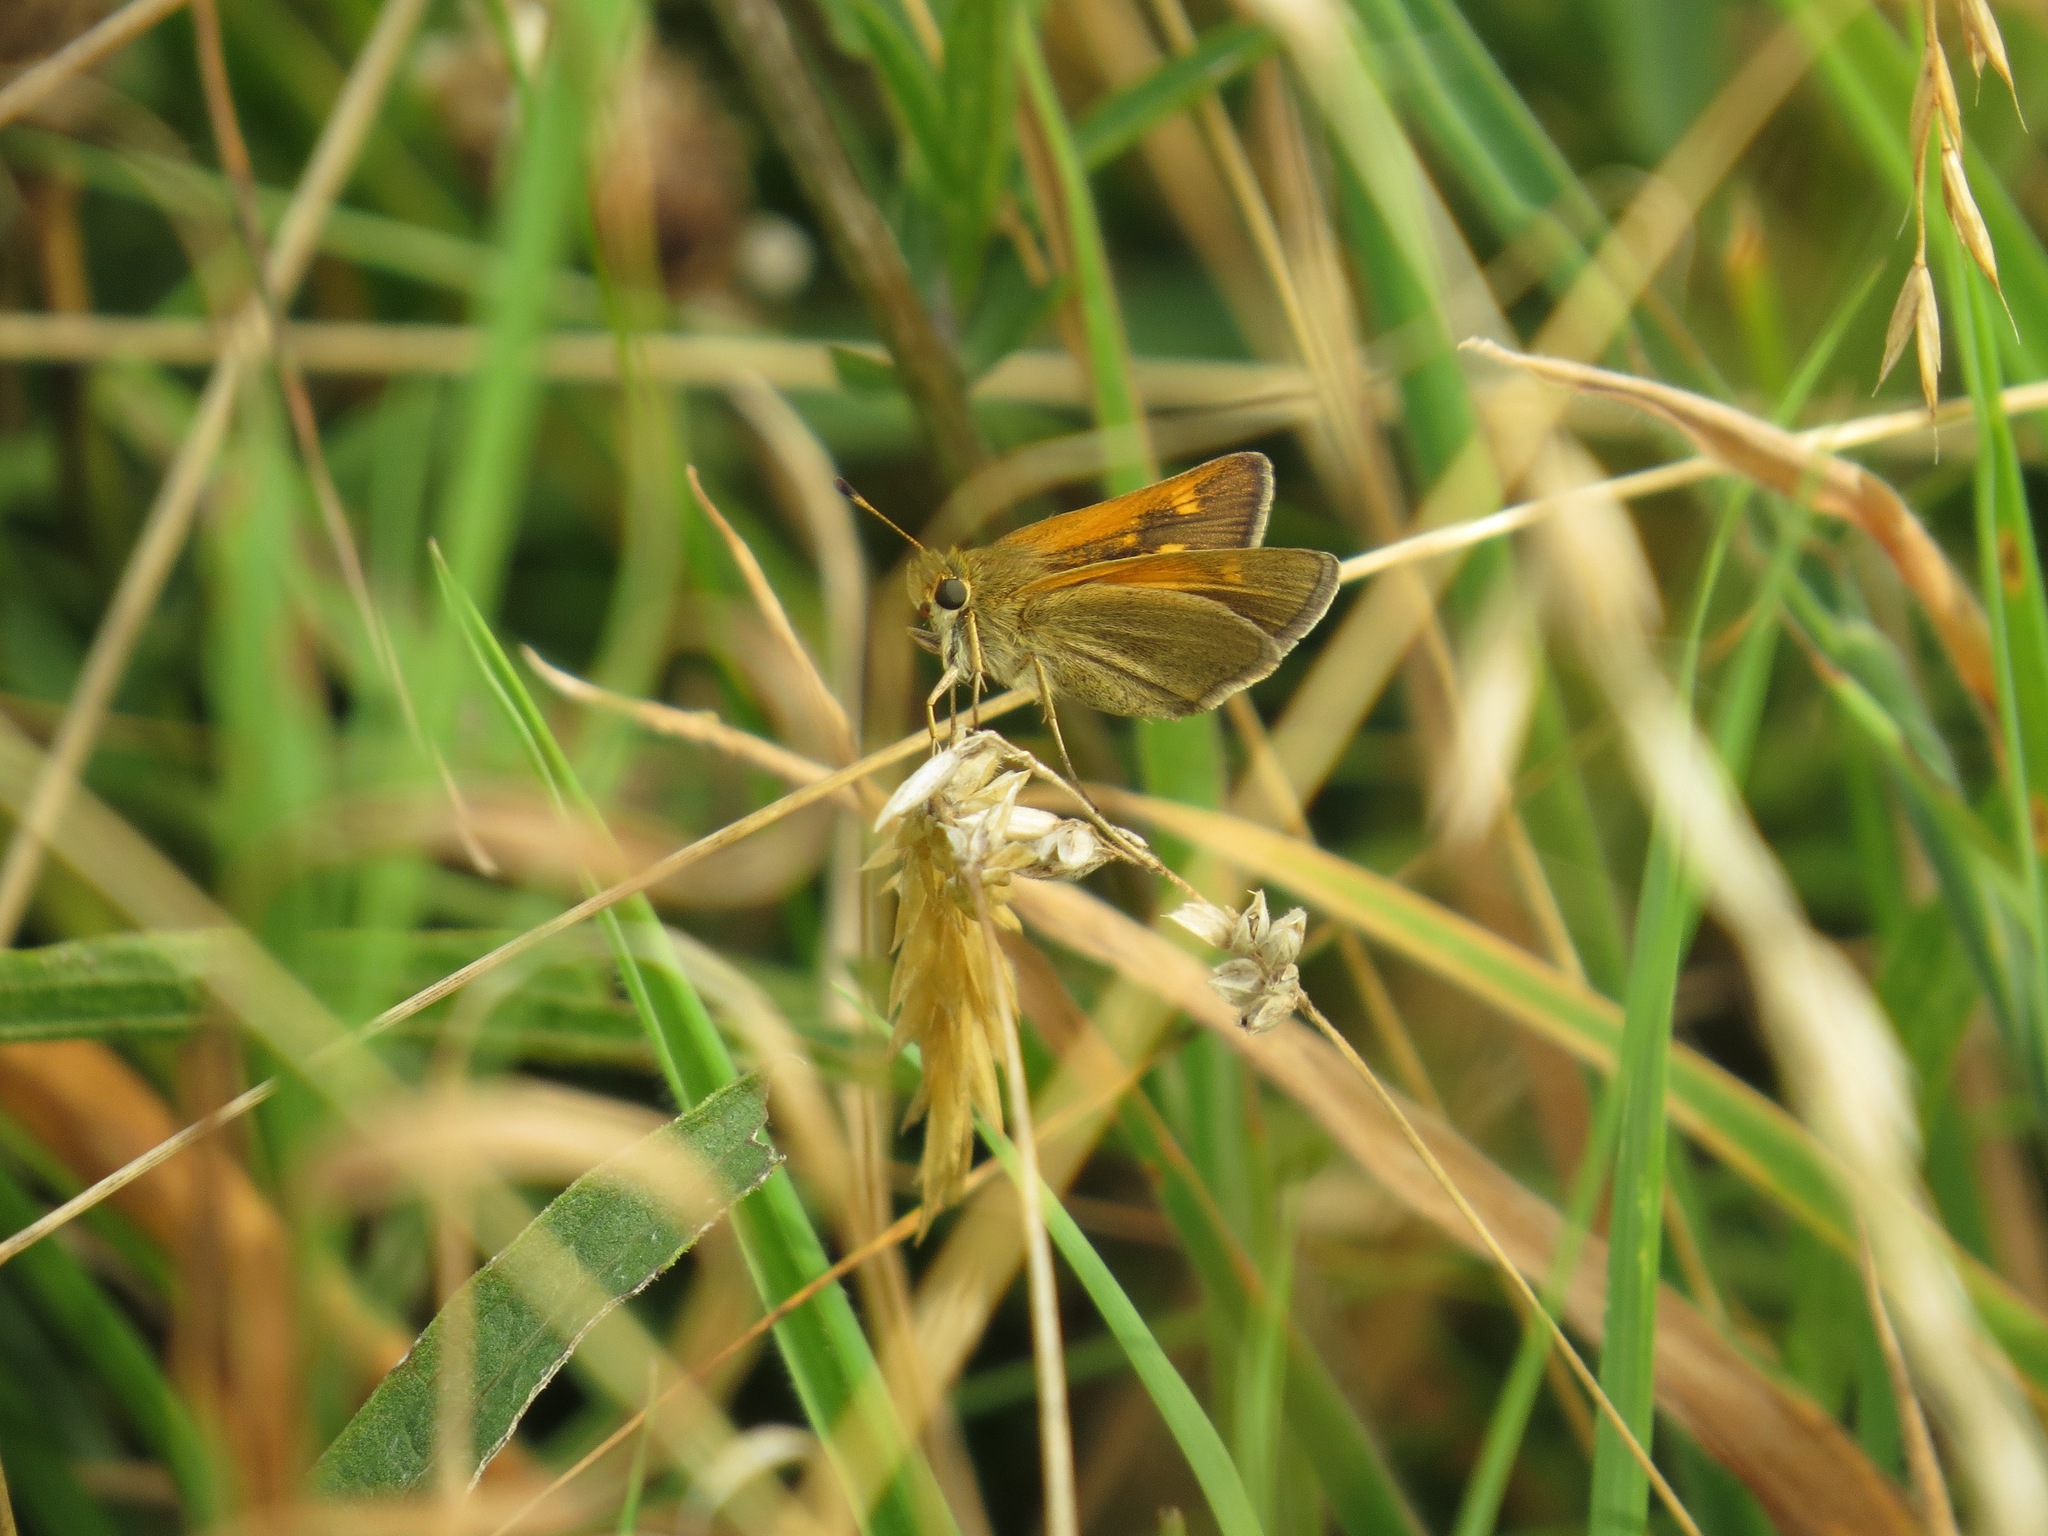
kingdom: Animalia
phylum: Arthropoda
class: Insecta
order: Lepidoptera
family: Hesperiidae
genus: Polites
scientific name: Polites themistocles
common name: Tawny-edged skipper
